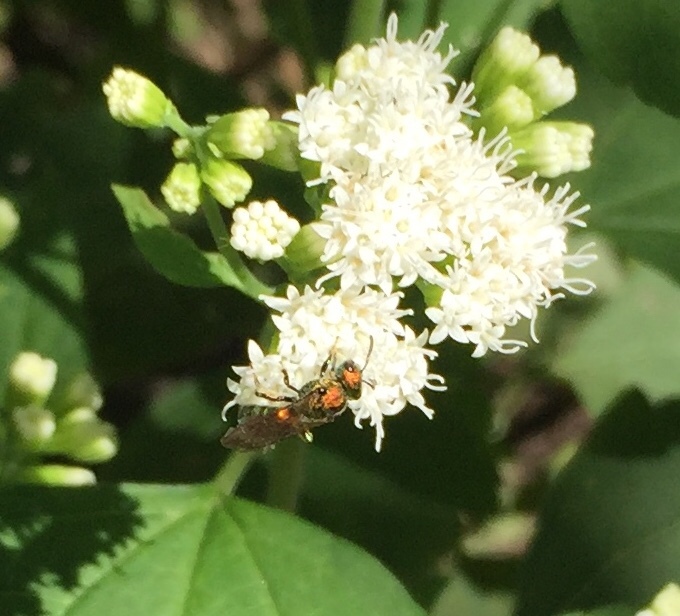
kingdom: Animalia
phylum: Arthropoda
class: Insecta
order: Hymenoptera
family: Halictidae
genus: Augochlora
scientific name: Augochlora pura
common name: Pure green sweat bee
